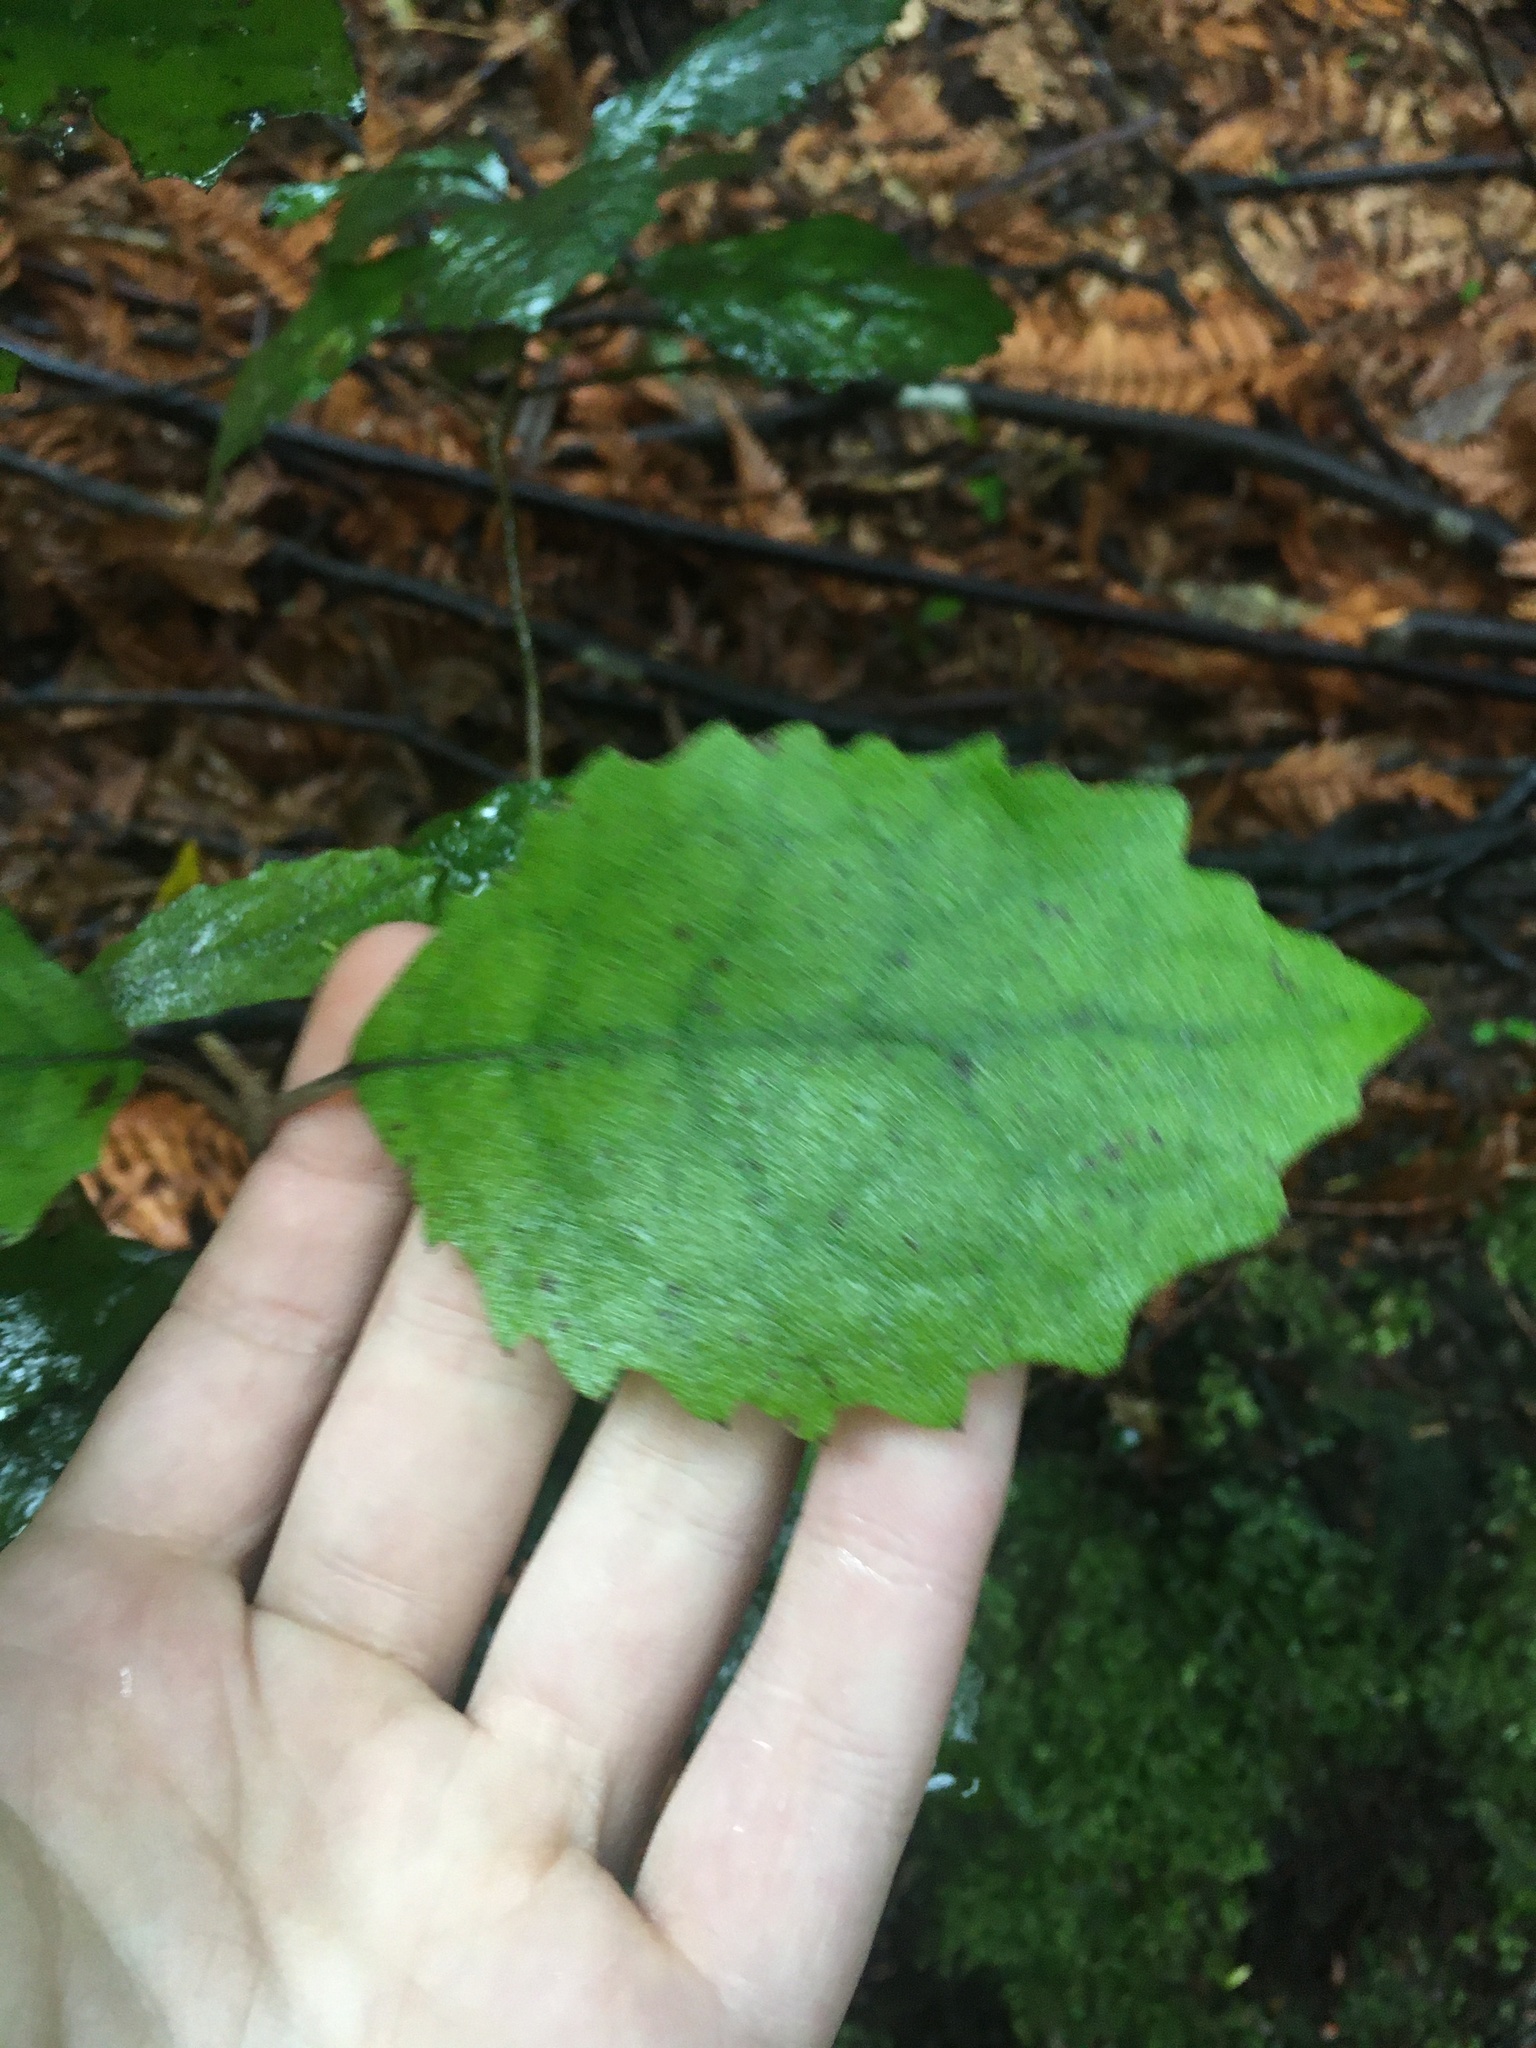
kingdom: Plantae
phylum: Tracheophyta
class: Magnoliopsida
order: Asterales
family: Asteraceae
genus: Olearia
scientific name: Olearia rani
